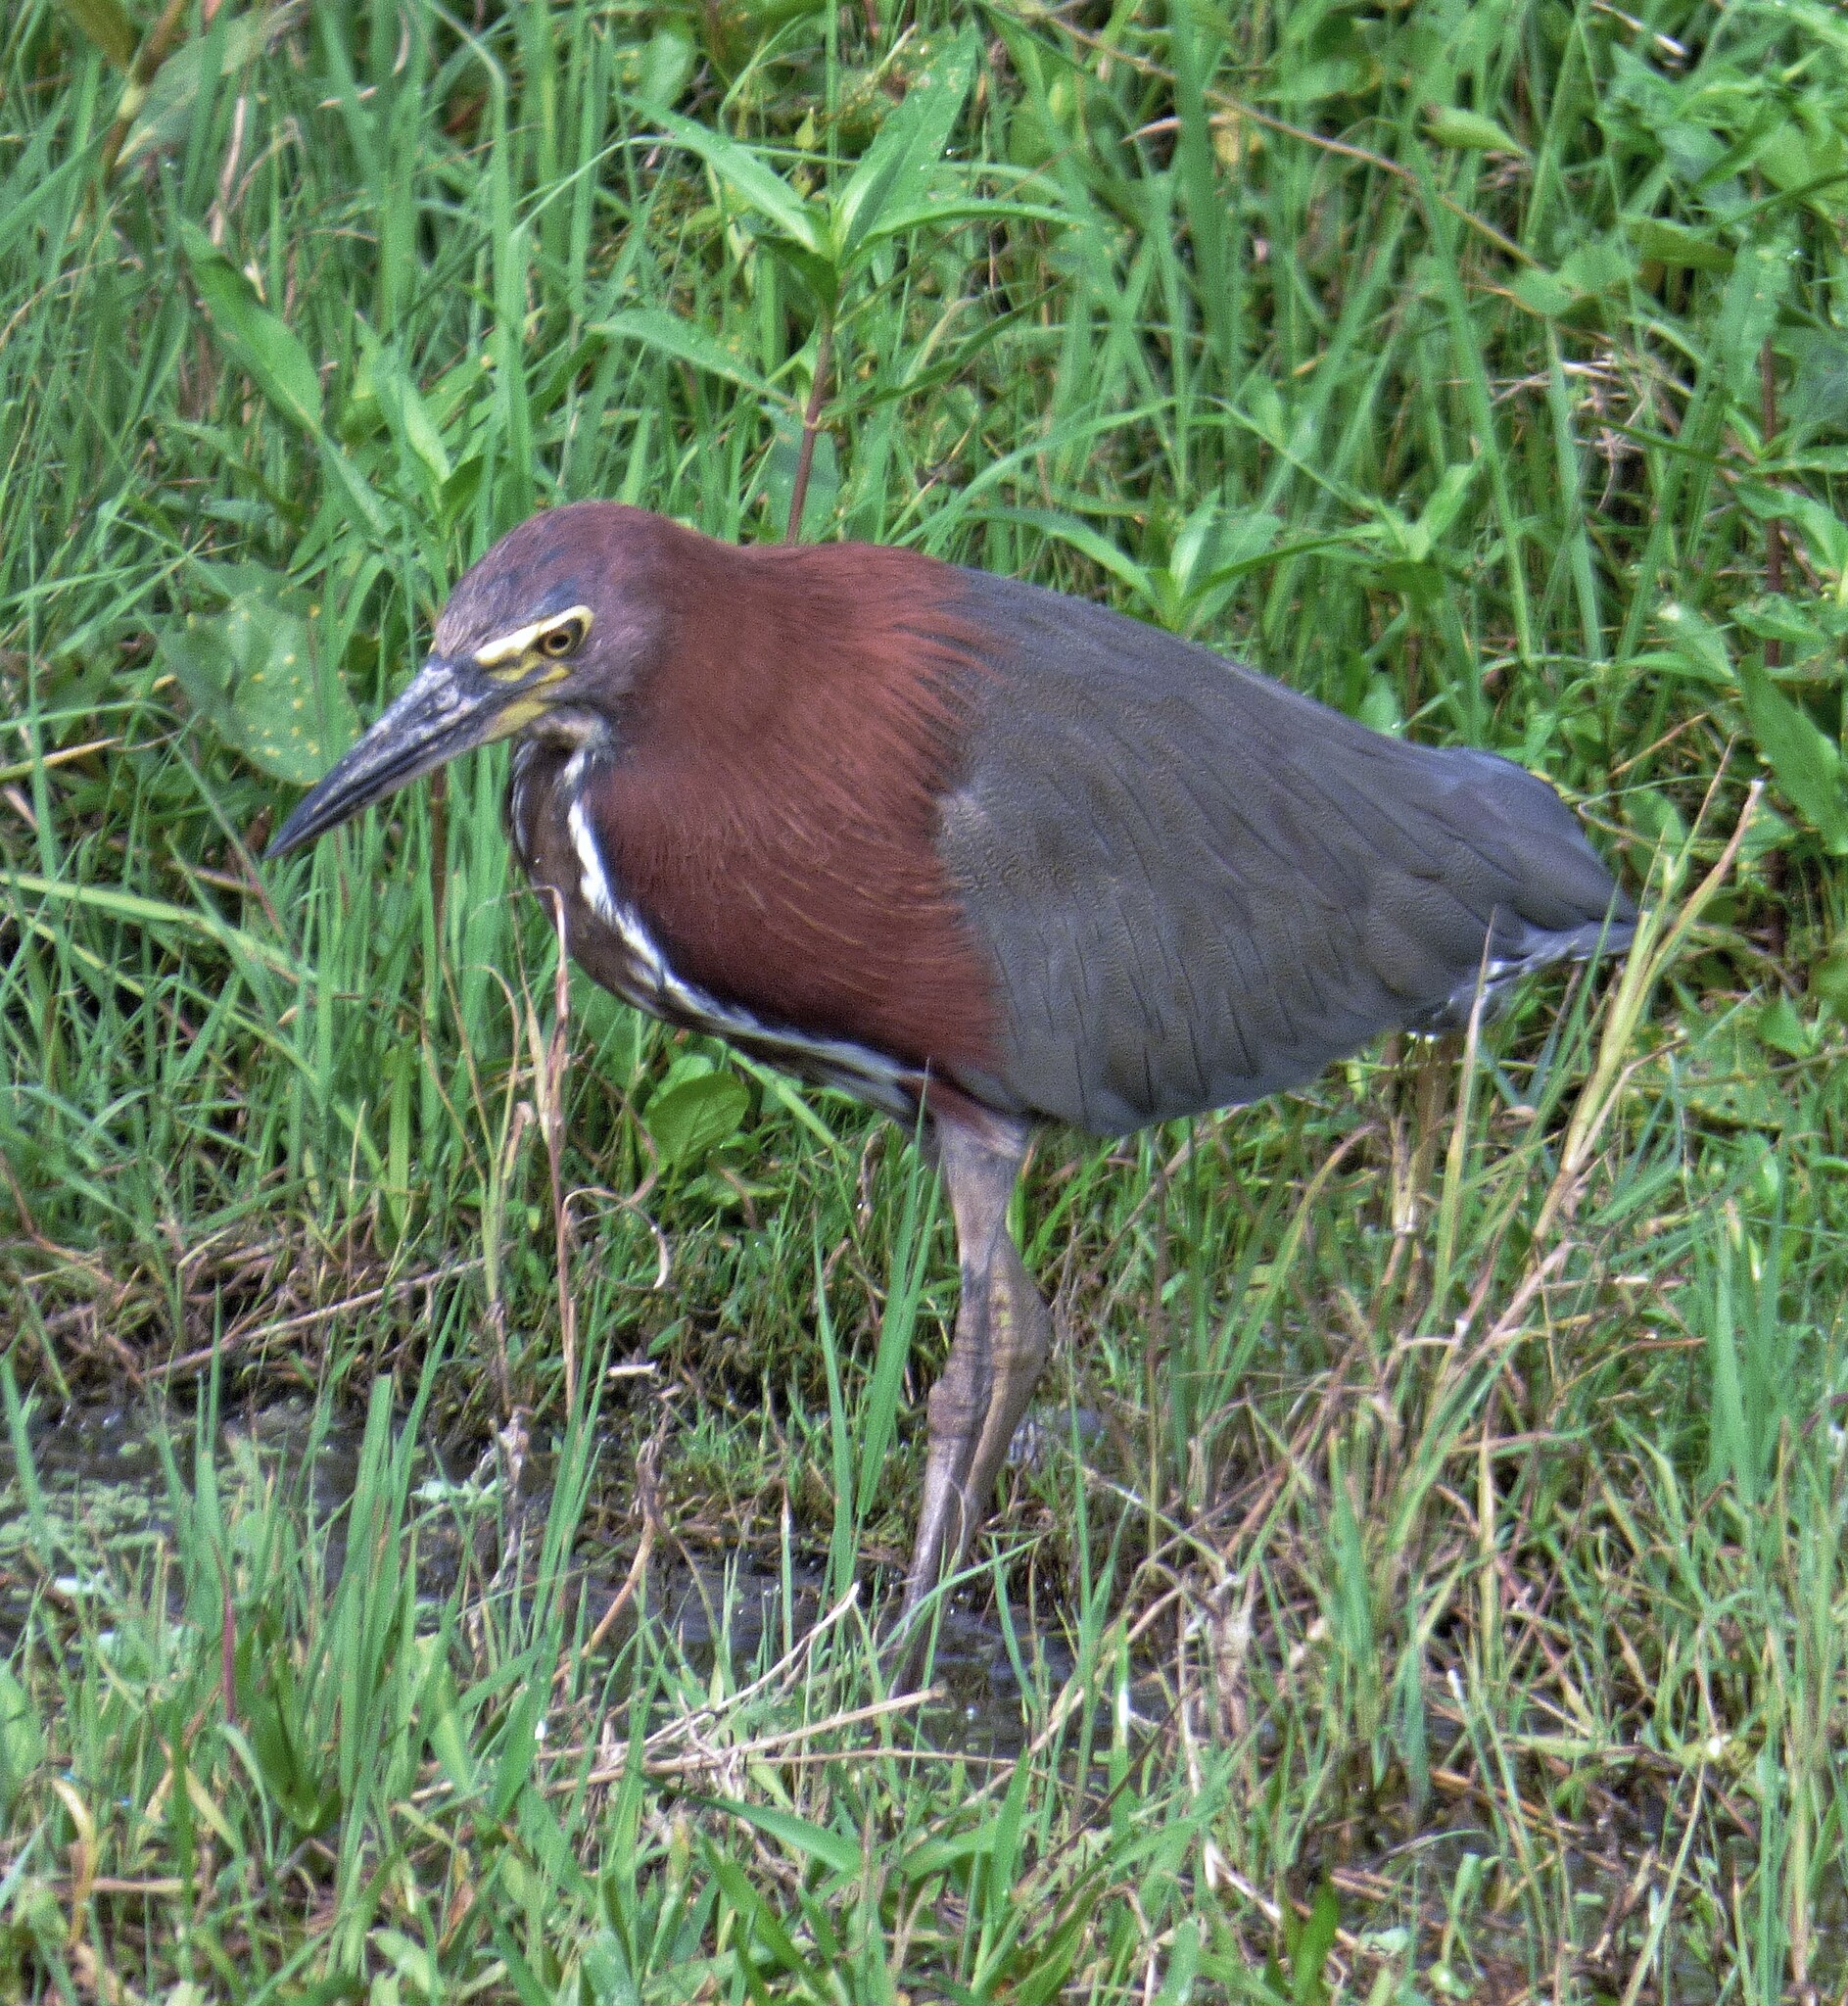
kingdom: Animalia
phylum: Chordata
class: Aves
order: Pelecaniformes
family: Ardeidae
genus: Tigrisoma
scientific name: Tigrisoma lineatum
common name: Rufescent tiger-heron
